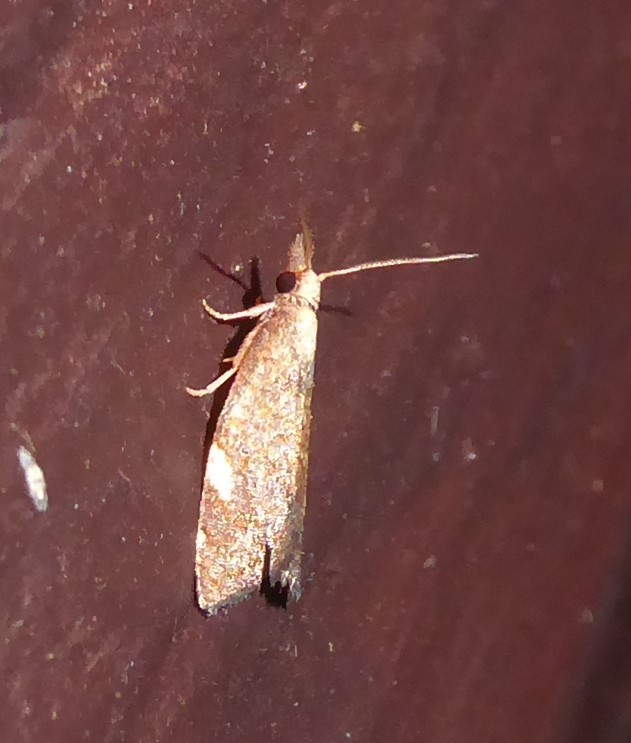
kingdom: Animalia
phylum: Arthropoda
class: Insecta
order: Lepidoptera
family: Tortricidae
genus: Catamacta
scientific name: Catamacta gavisana
